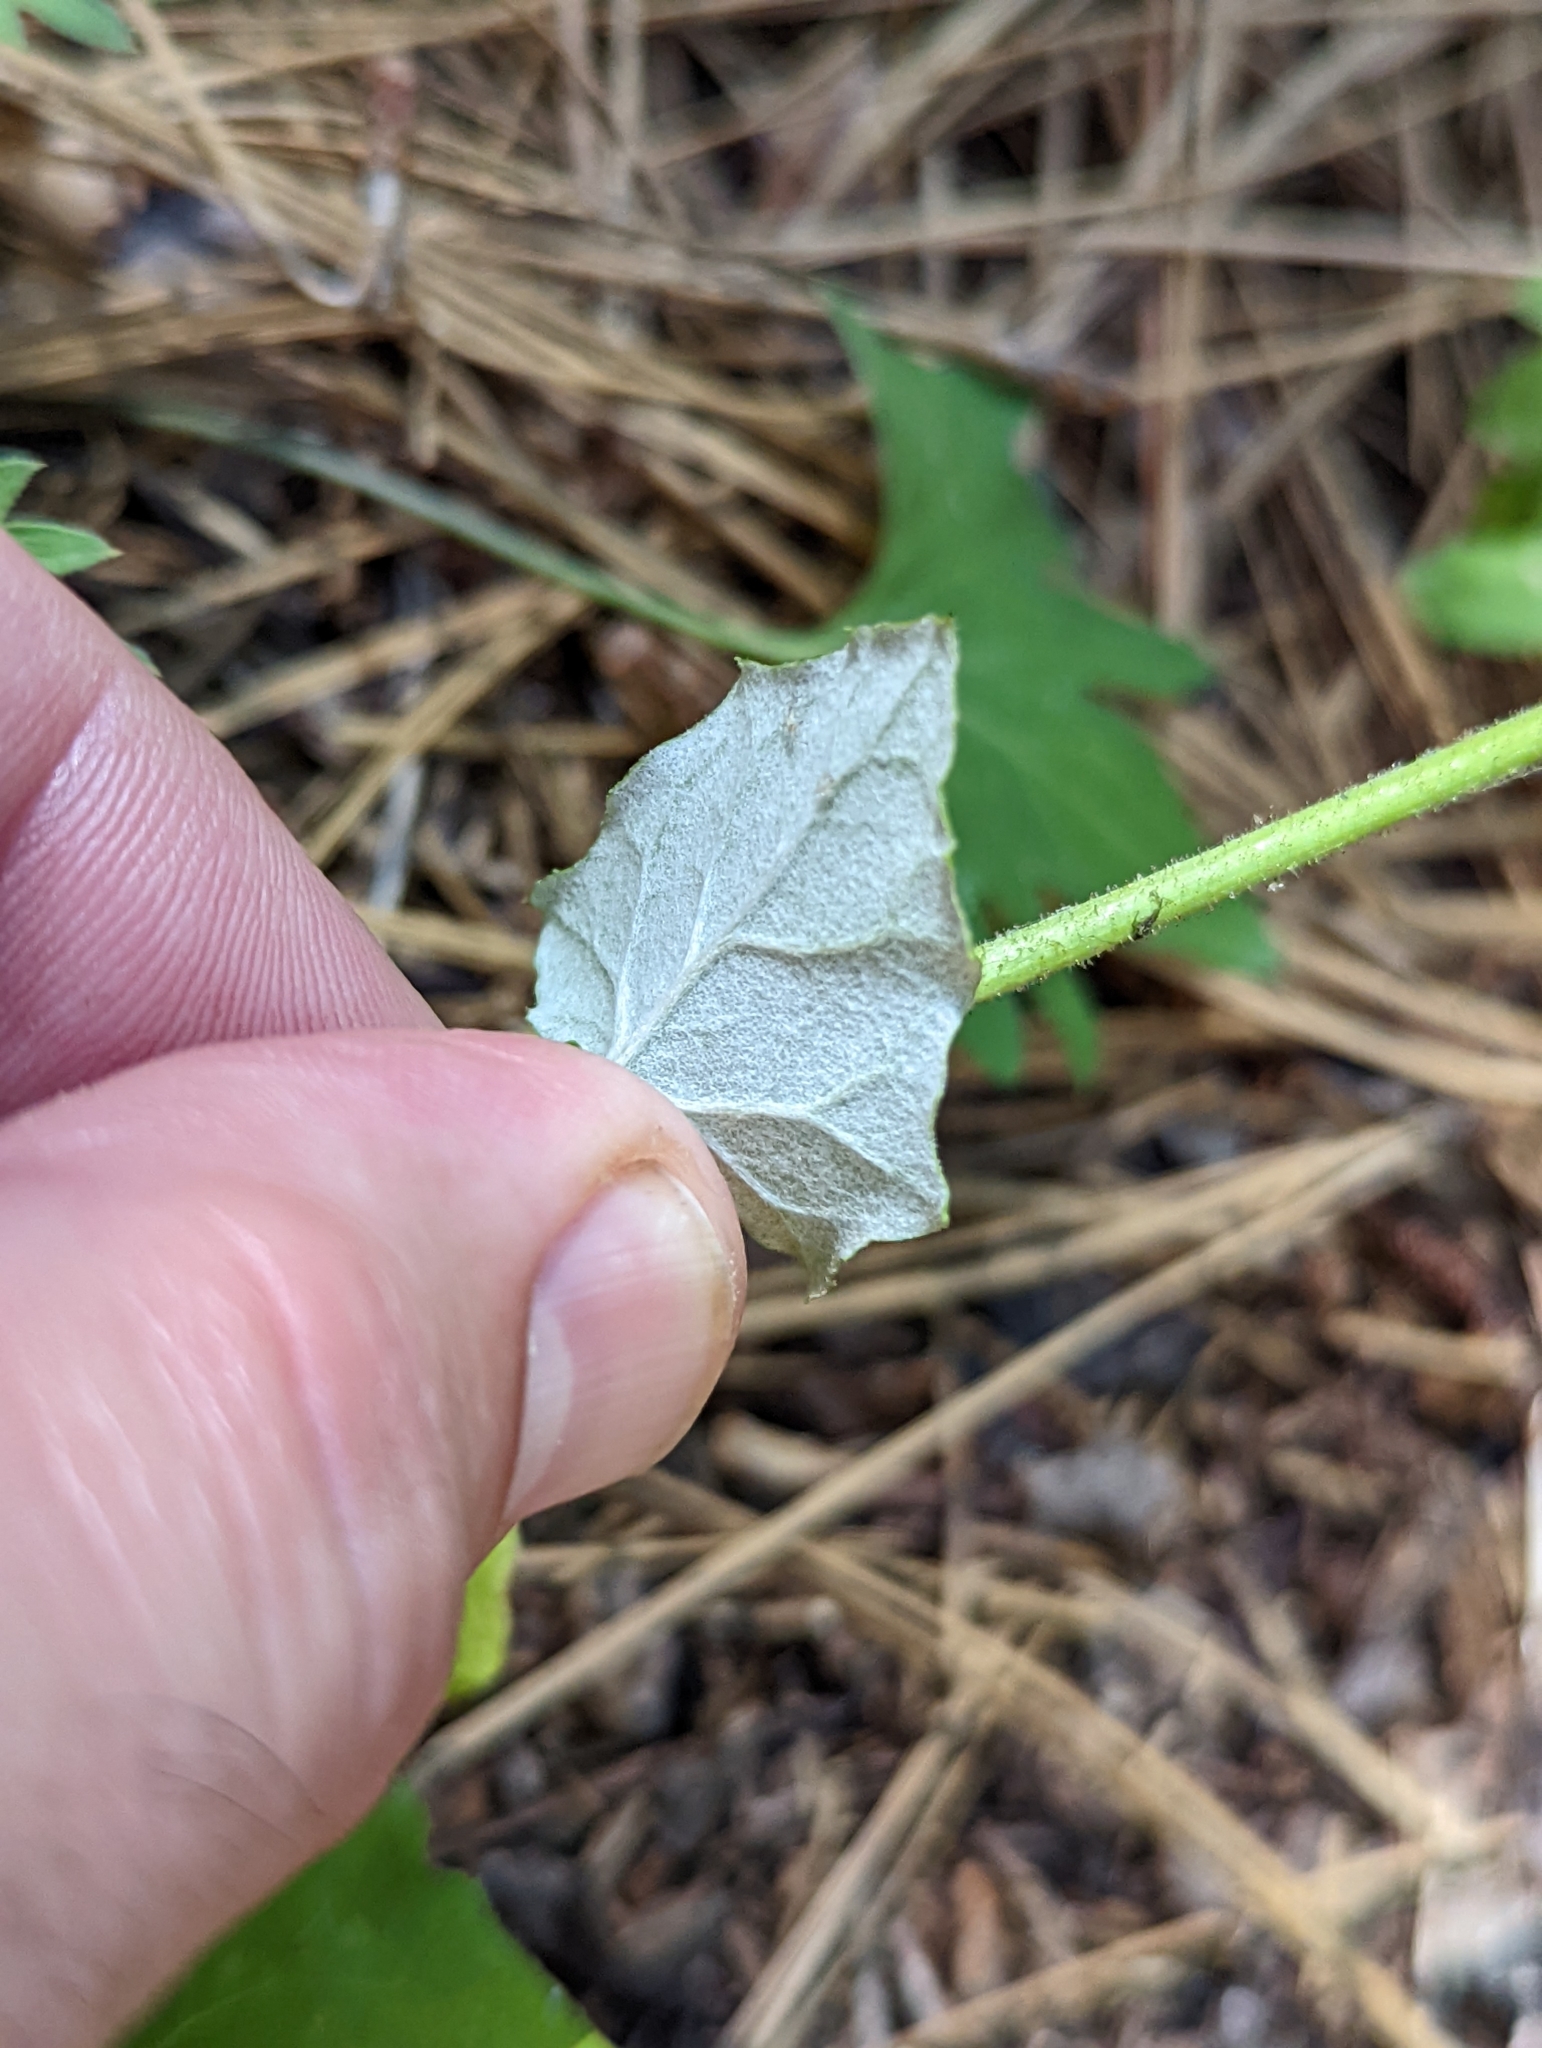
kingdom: Plantae
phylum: Tracheophyta
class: Magnoliopsida
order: Asterales
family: Asteraceae
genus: Adenocaulon
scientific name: Adenocaulon bicolor
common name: Trailplant
